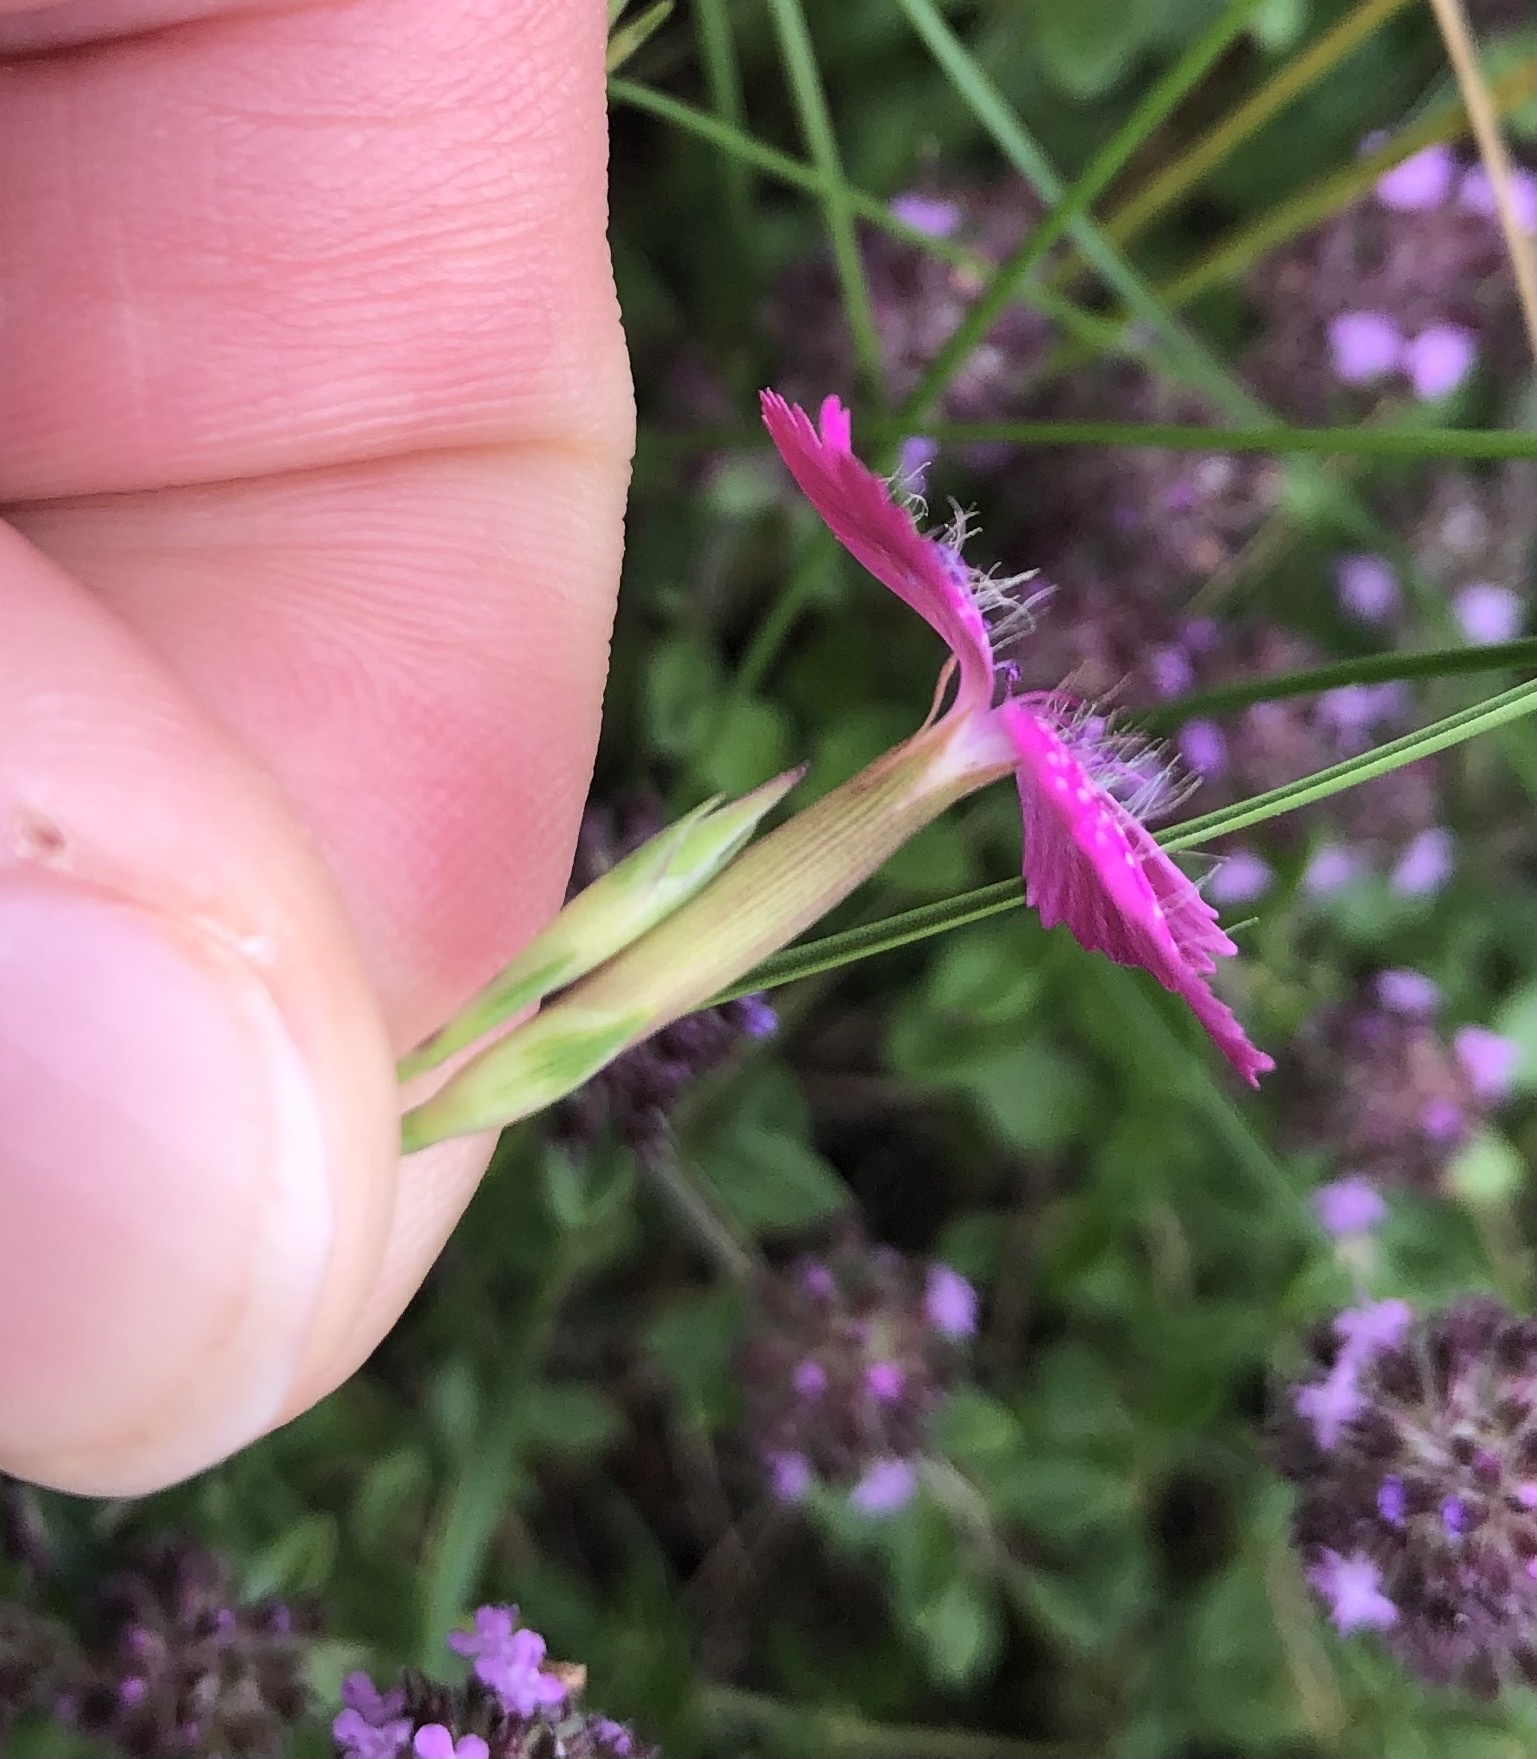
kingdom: Plantae
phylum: Tracheophyta
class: Magnoliopsida
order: Caryophyllales
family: Caryophyllaceae
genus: Dianthus
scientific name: Dianthus deltoides
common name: Maiden pink
